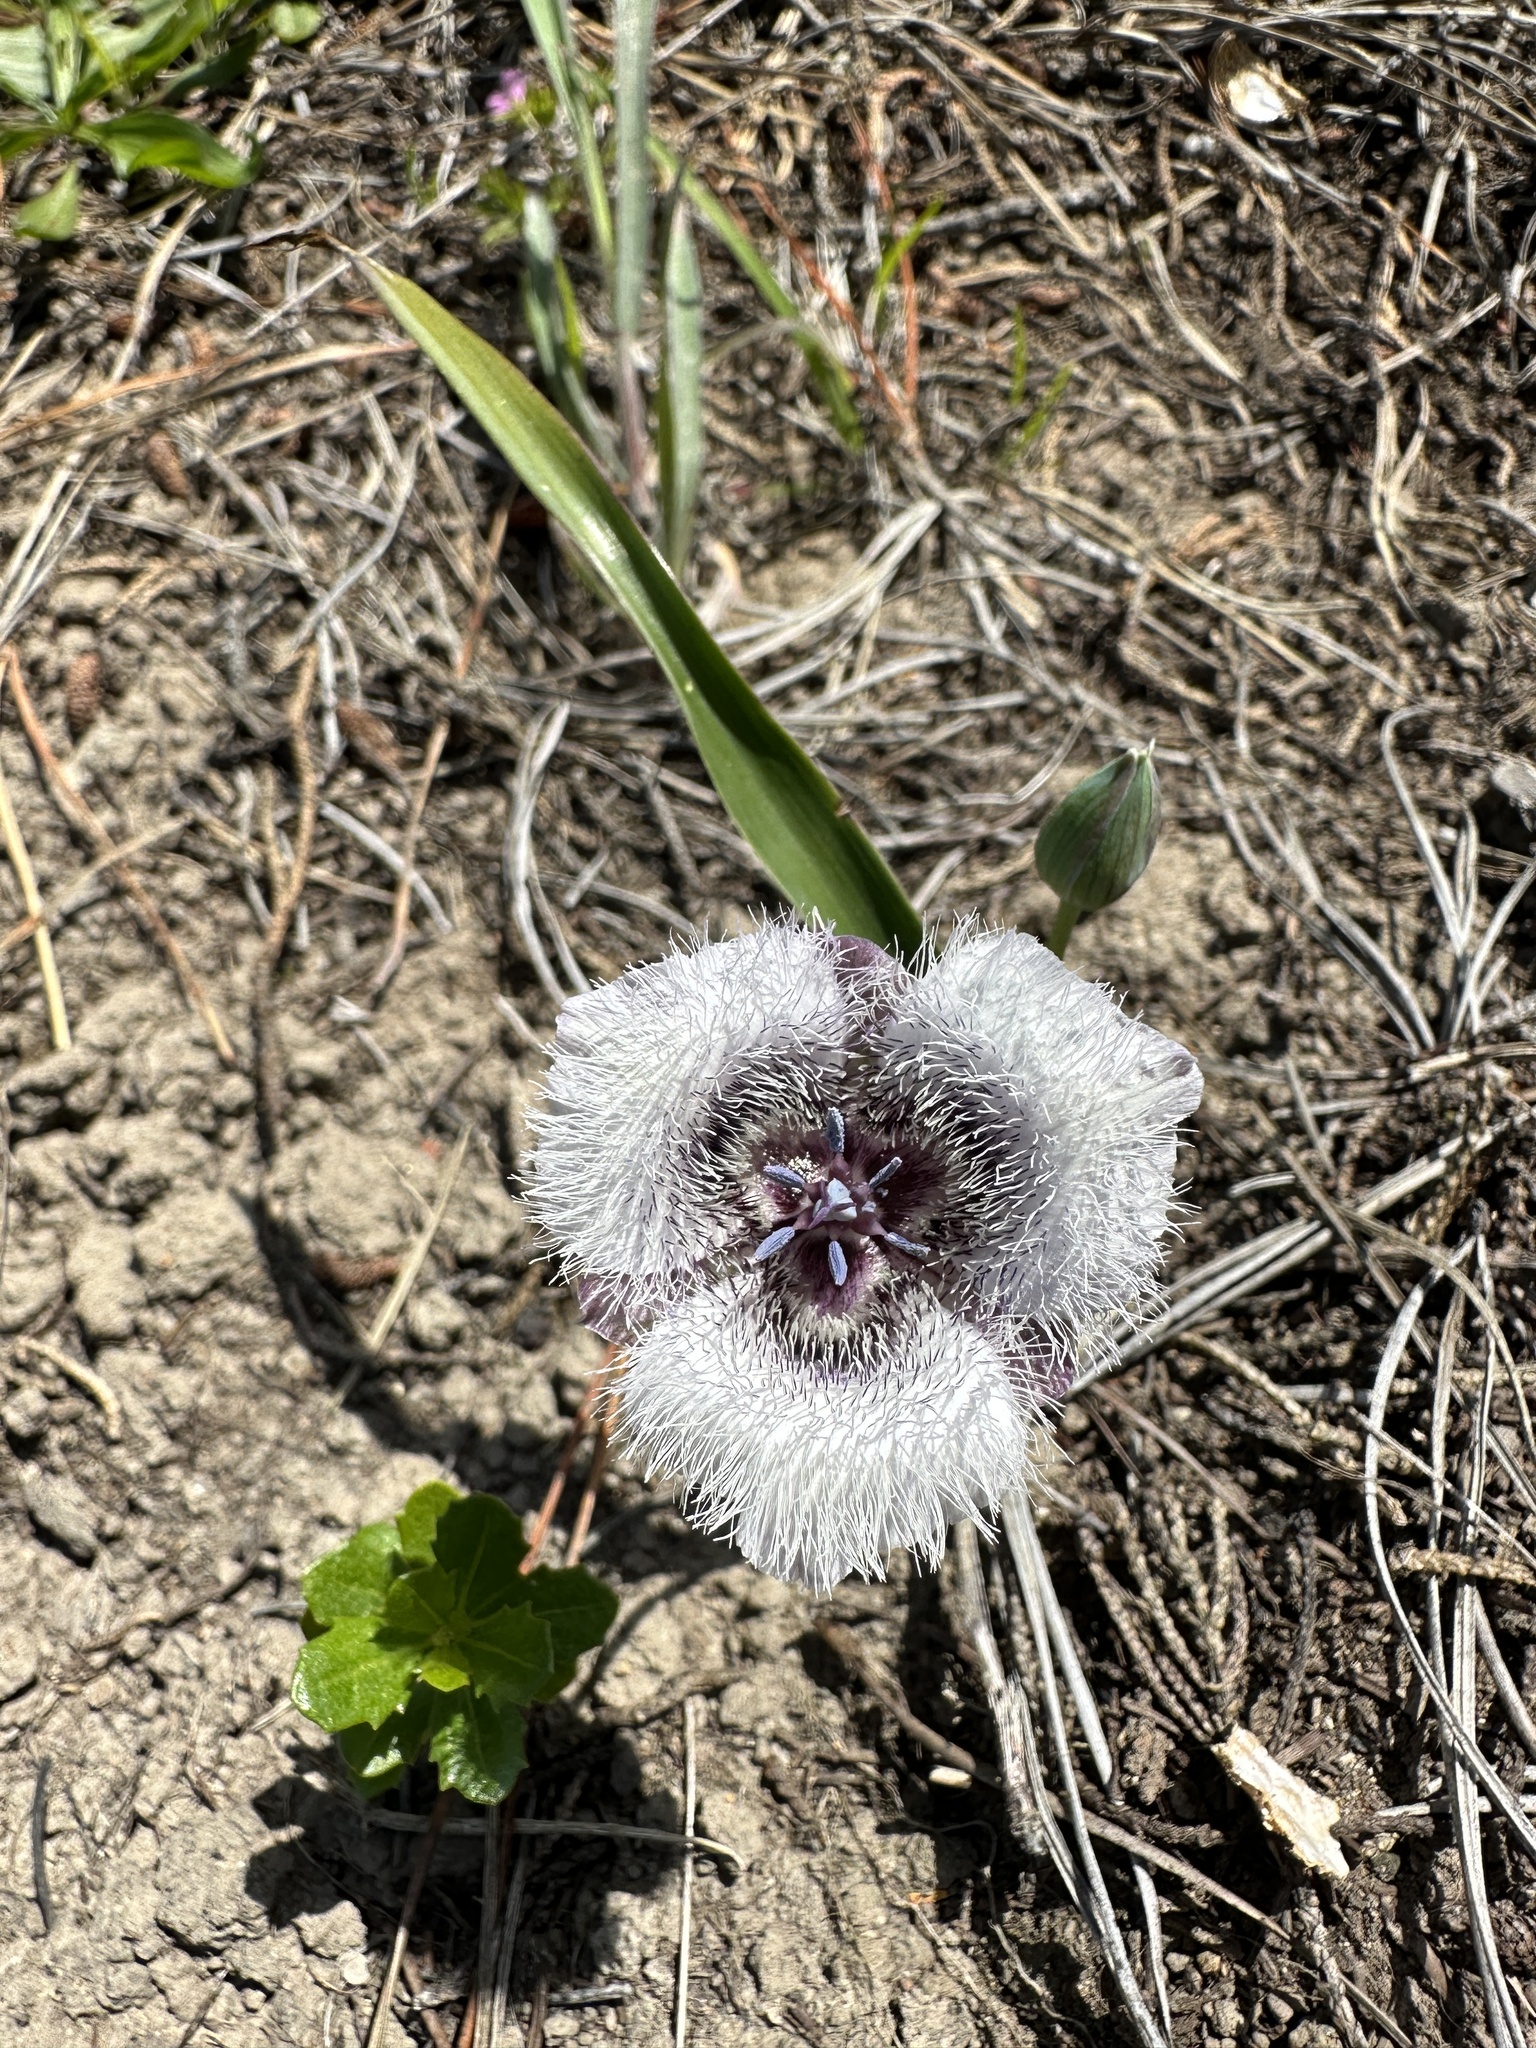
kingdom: Plantae
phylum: Tracheophyta
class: Liliopsida
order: Liliales
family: Liliaceae
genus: Calochortus
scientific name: Calochortus tolmiei
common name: Pussy-ears
